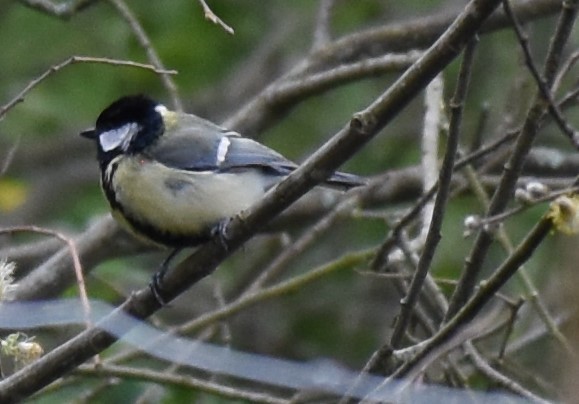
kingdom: Animalia
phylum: Chordata
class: Aves
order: Passeriformes
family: Paridae
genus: Parus
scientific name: Parus major
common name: Great tit
